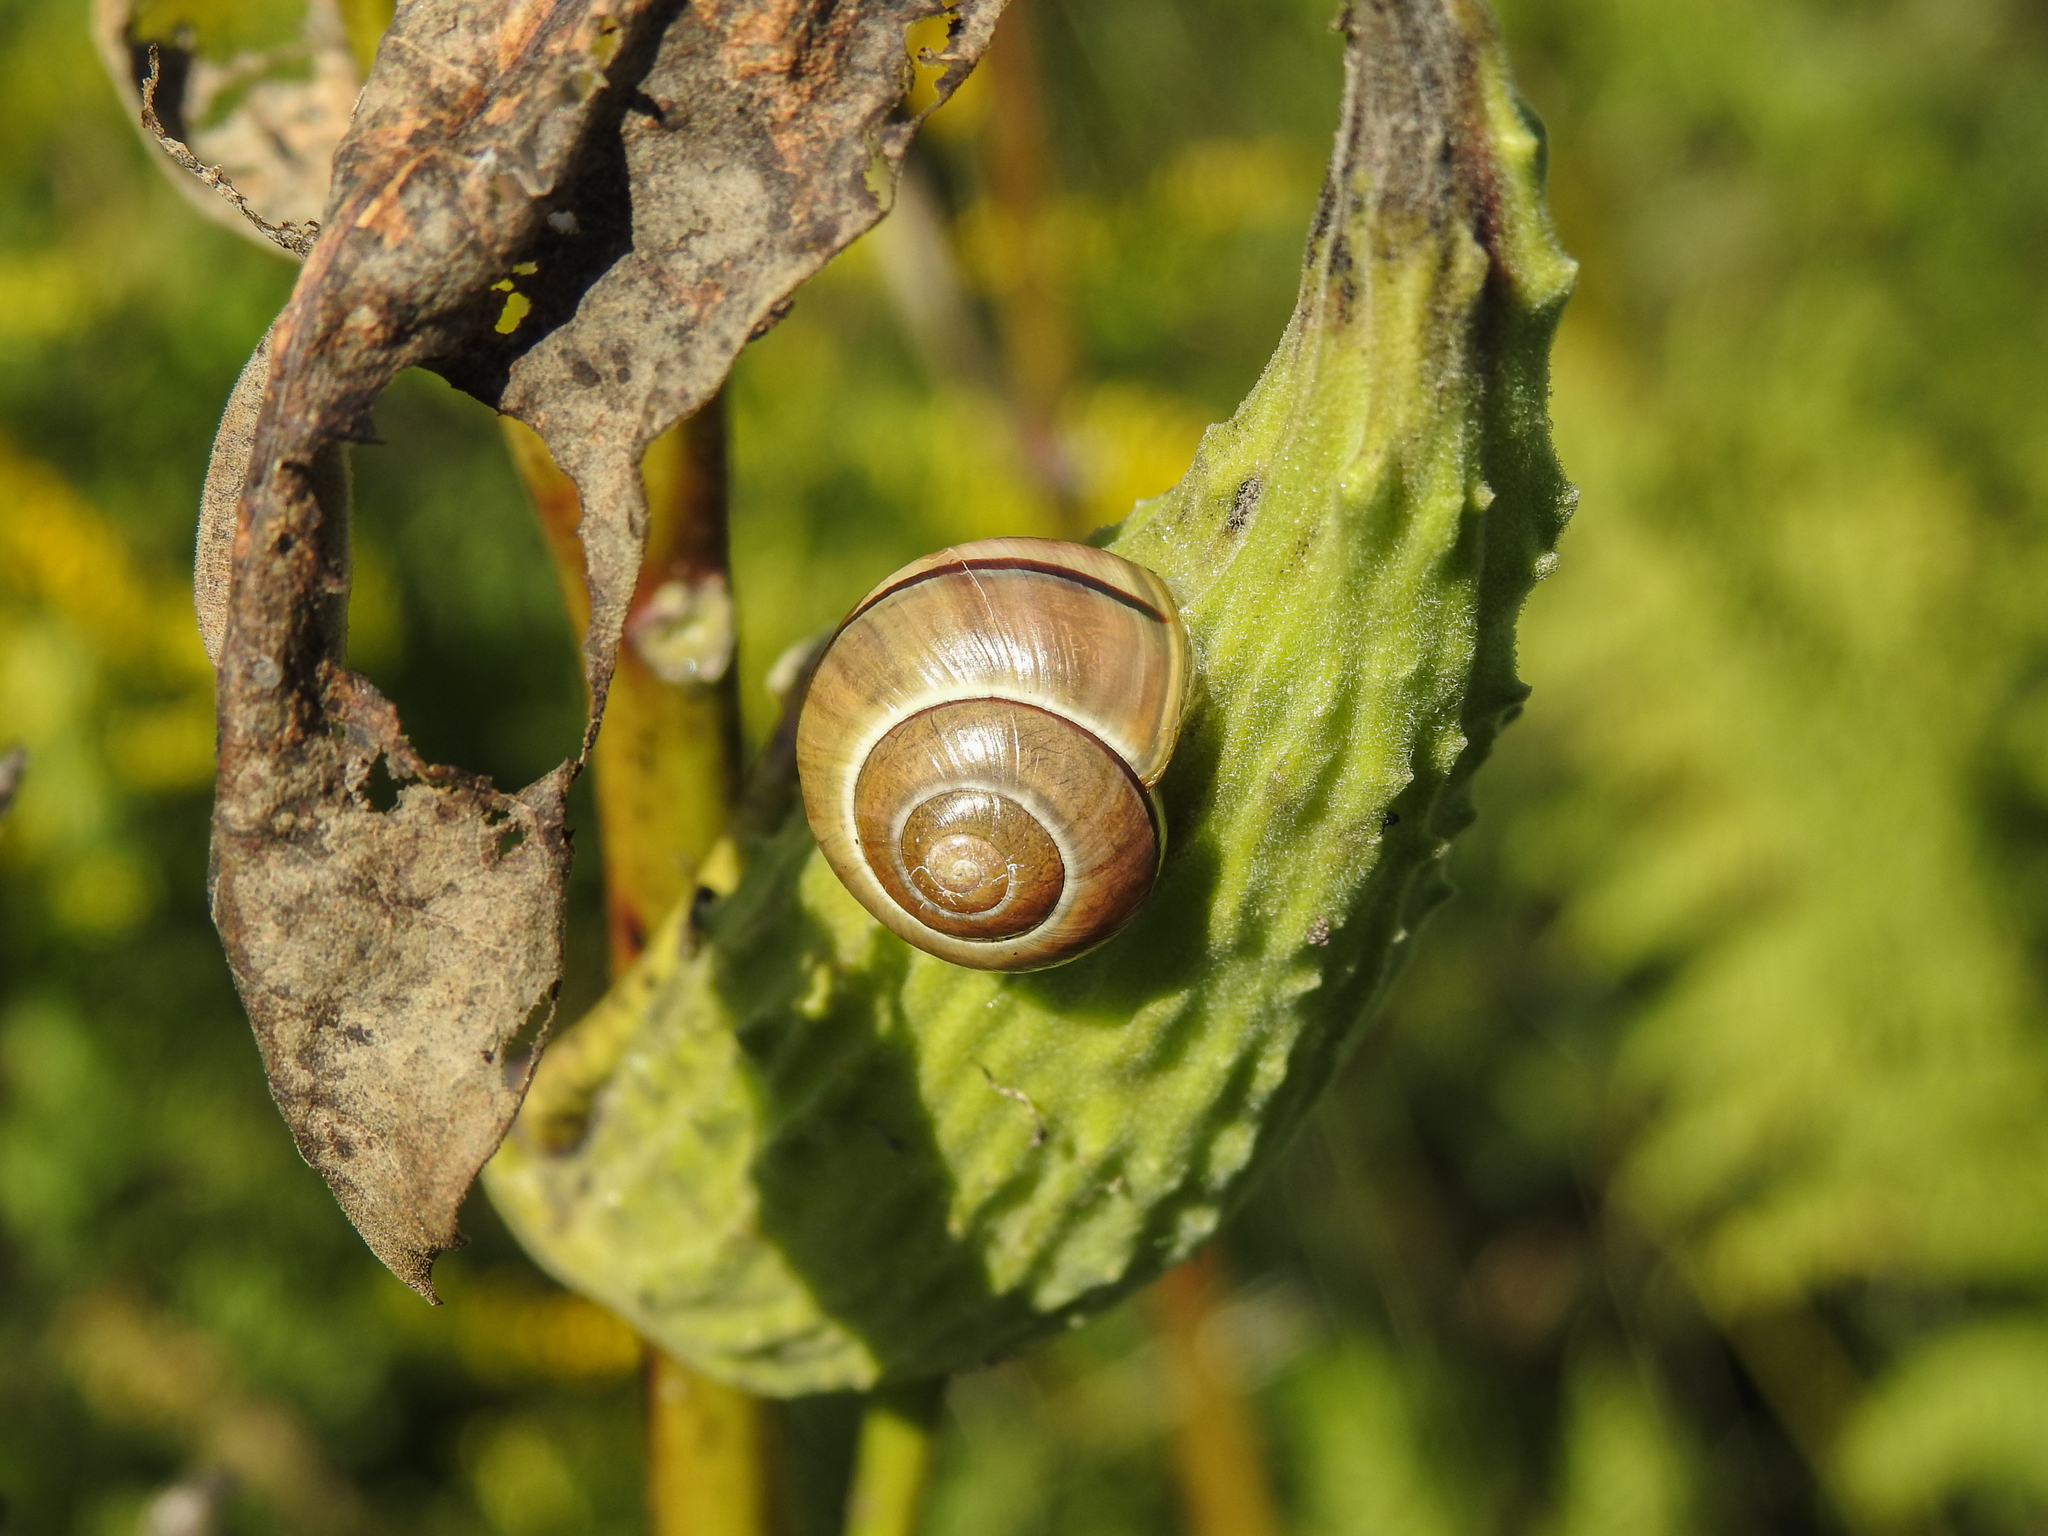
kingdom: Animalia
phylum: Mollusca
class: Gastropoda
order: Stylommatophora
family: Helicidae
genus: Cepaea
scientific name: Cepaea nemoralis
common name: Grovesnail
